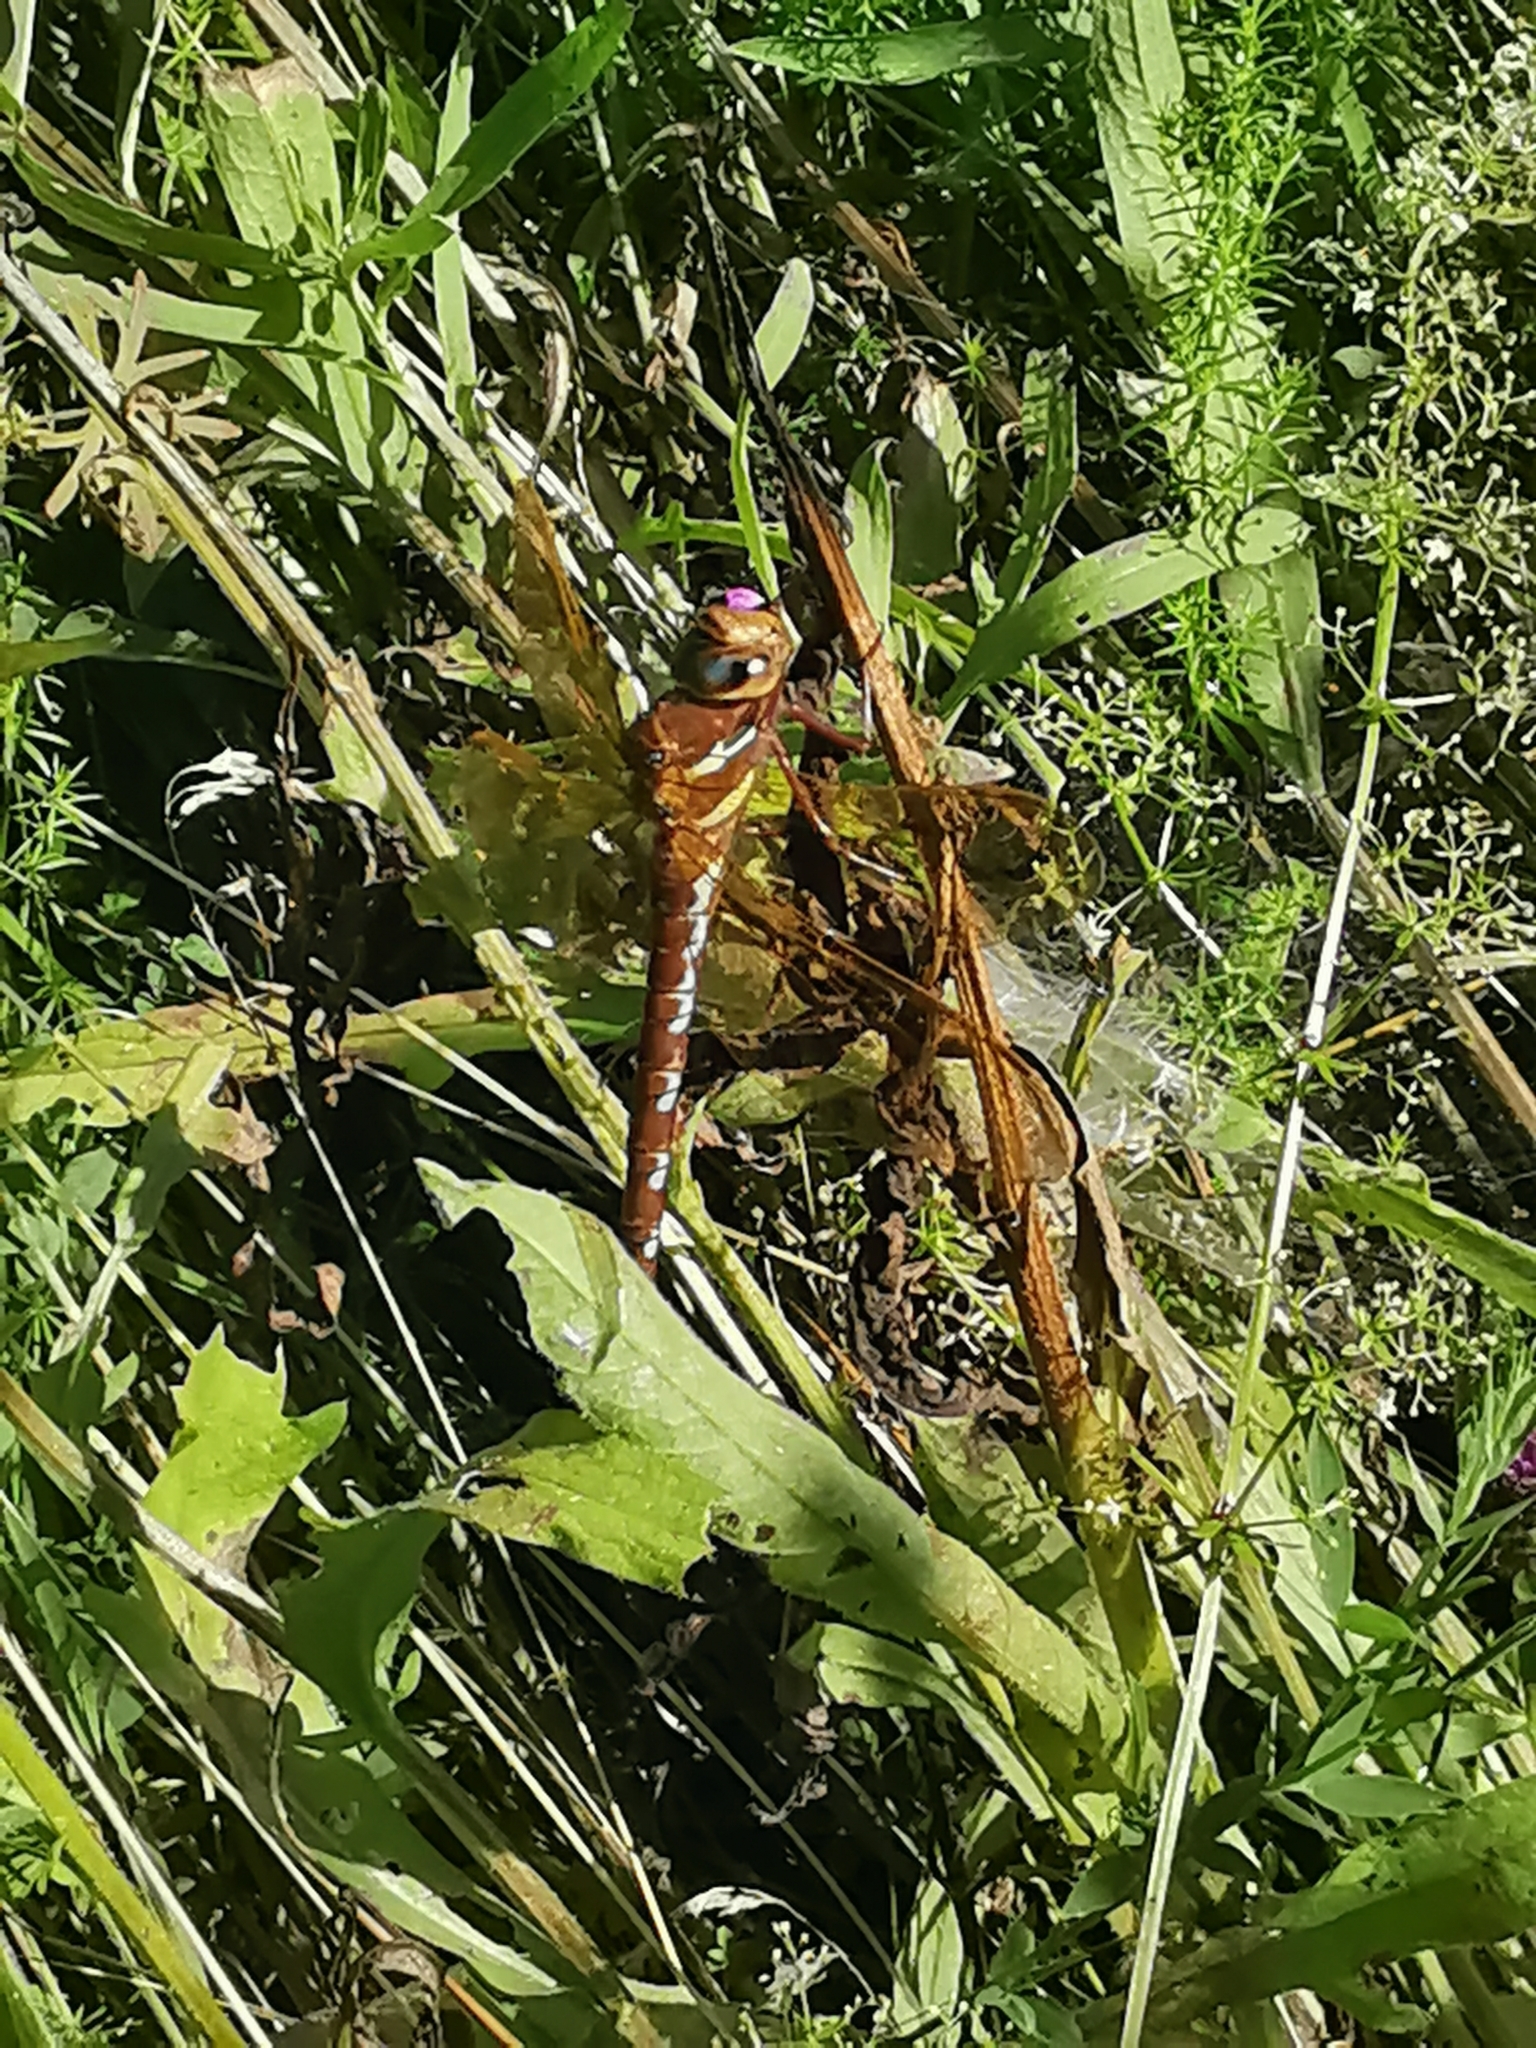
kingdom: Animalia
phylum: Arthropoda
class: Insecta
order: Odonata
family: Aeshnidae
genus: Aeshna
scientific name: Aeshna grandis
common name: Brown hawker
